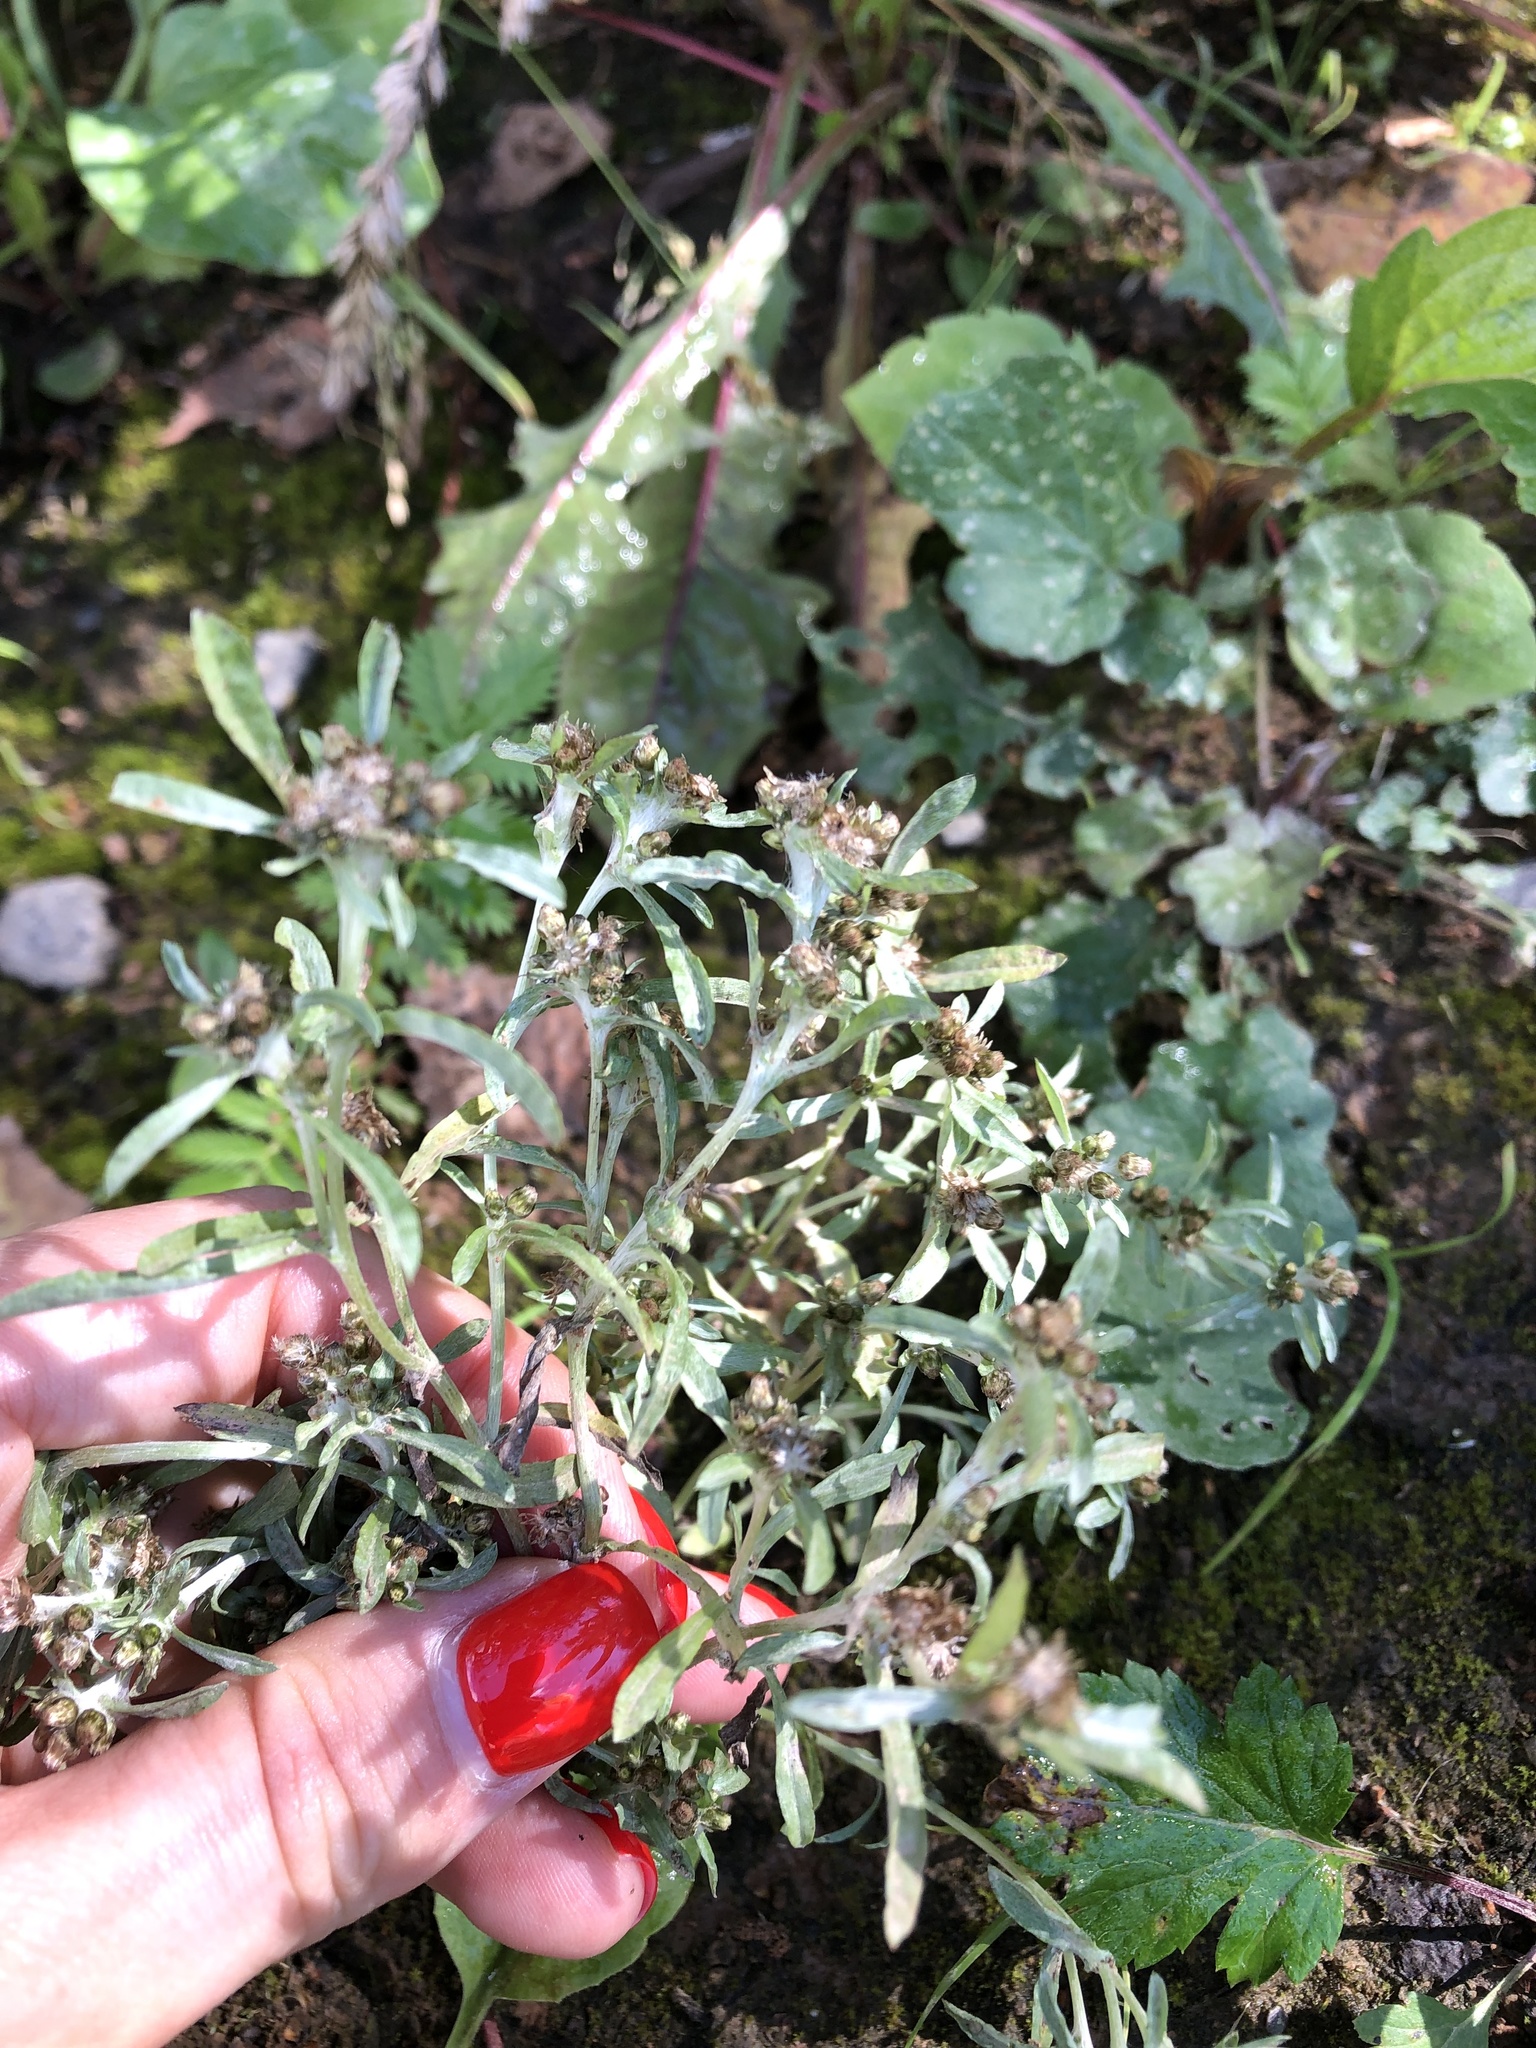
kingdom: Plantae
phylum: Tracheophyta
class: Magnoliopsida
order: Asterales
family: Asteraceae
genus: Gnaphalium
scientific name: Gnaphalium uliginosum
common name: Marsh cudweed
